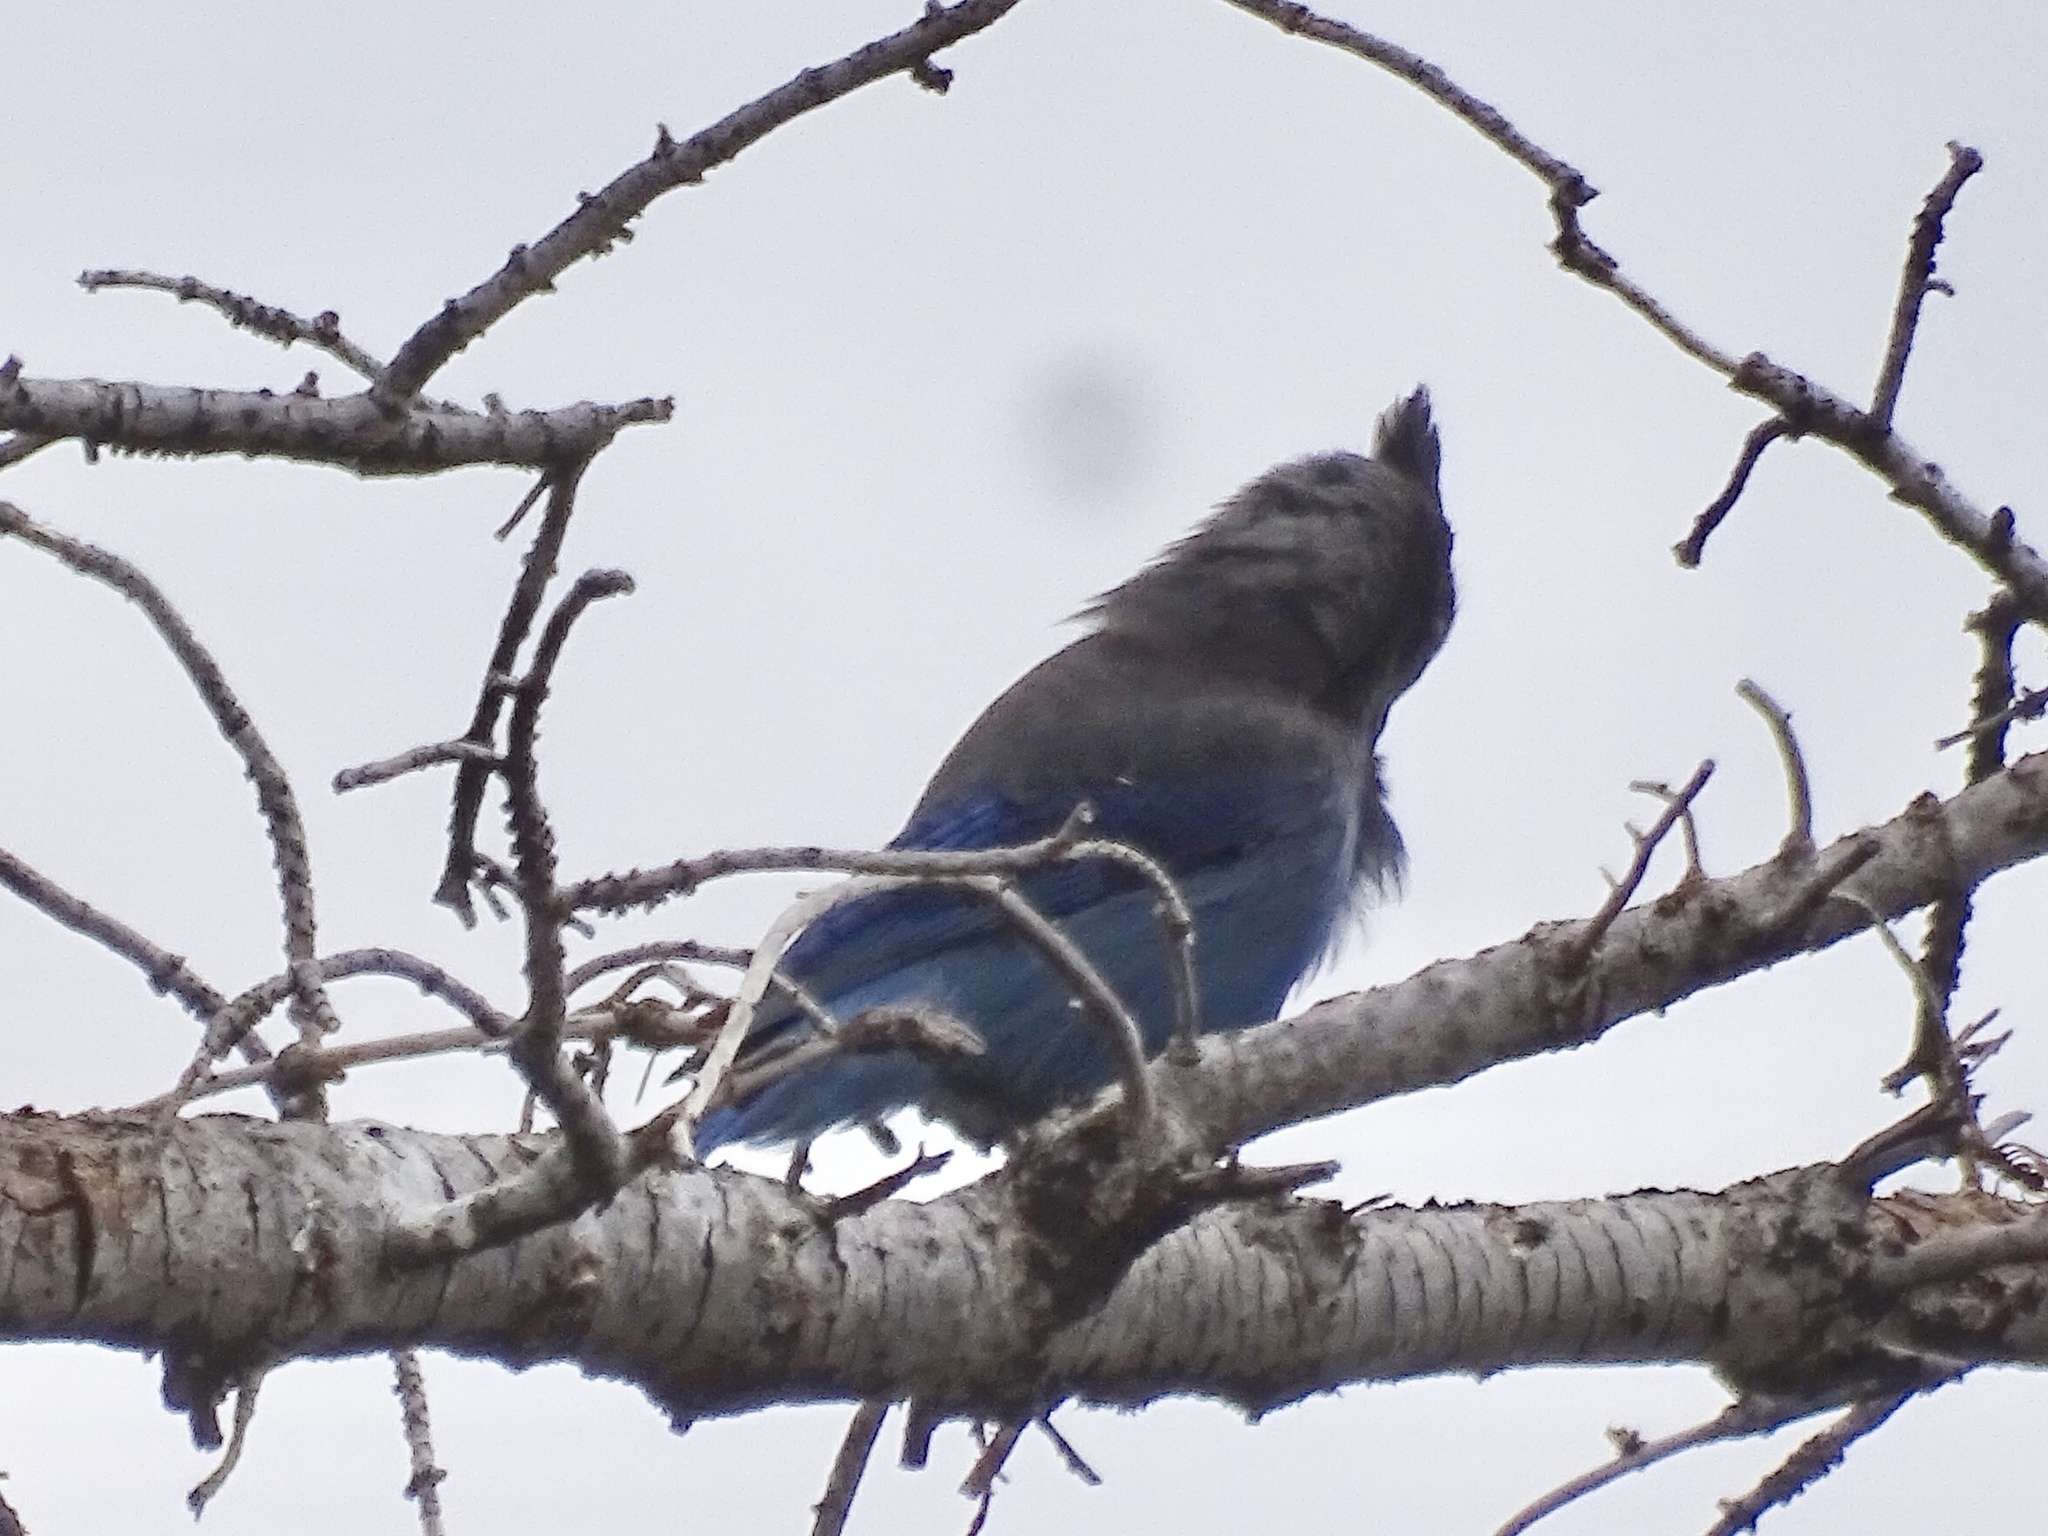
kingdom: Animalia
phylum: Chordata
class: Aves
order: Passeriformes
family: Corvidae
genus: Cyanocitta
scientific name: Cyanocitta stelleri
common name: Steller's jay
